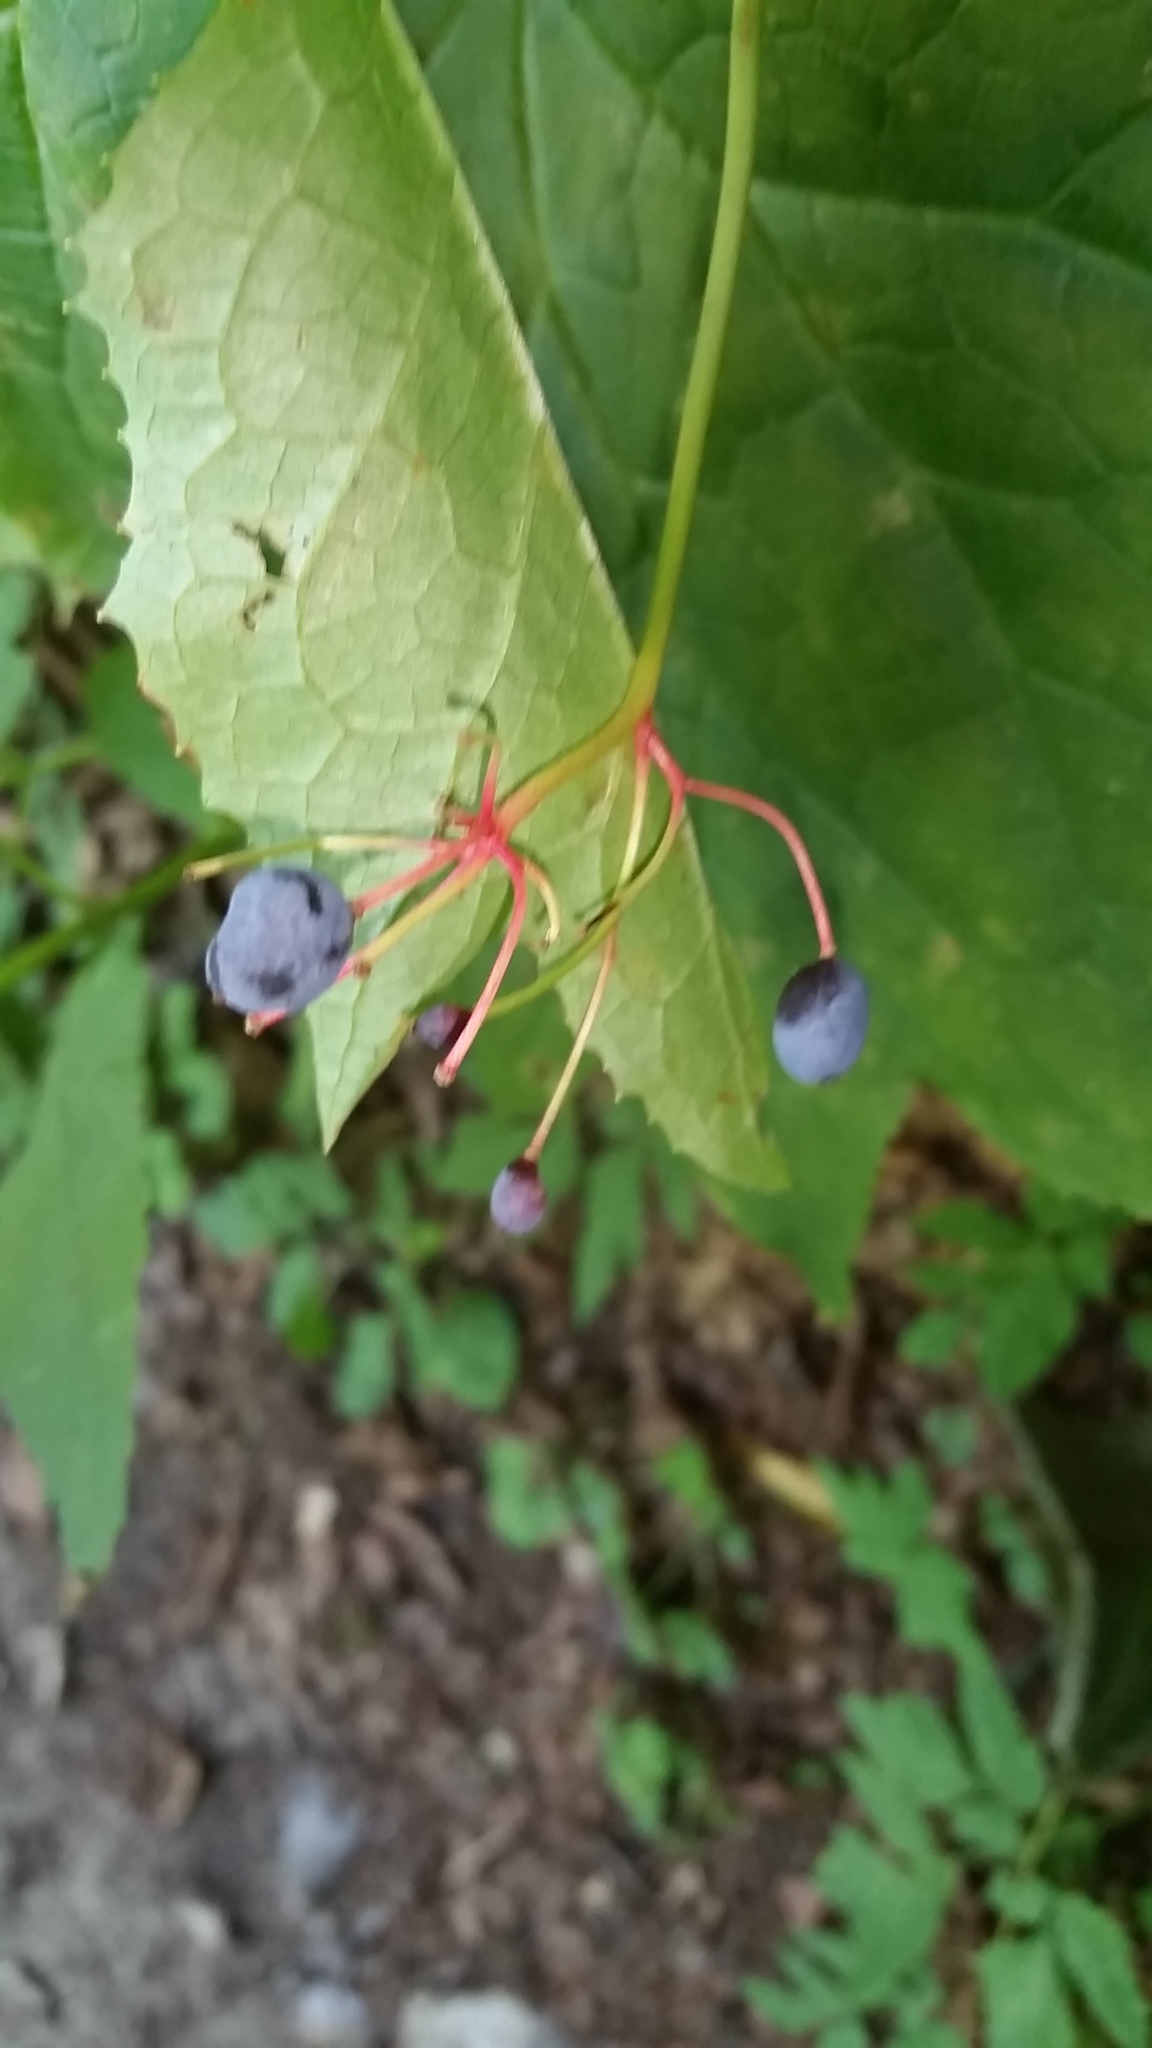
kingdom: Plantae
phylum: Tracheophyta
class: Magnoliopsida
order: Ranunculales
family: Berberidaceae
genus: Diphylleia
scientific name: Diphylleia cymosa
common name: Umbrella-leaf
